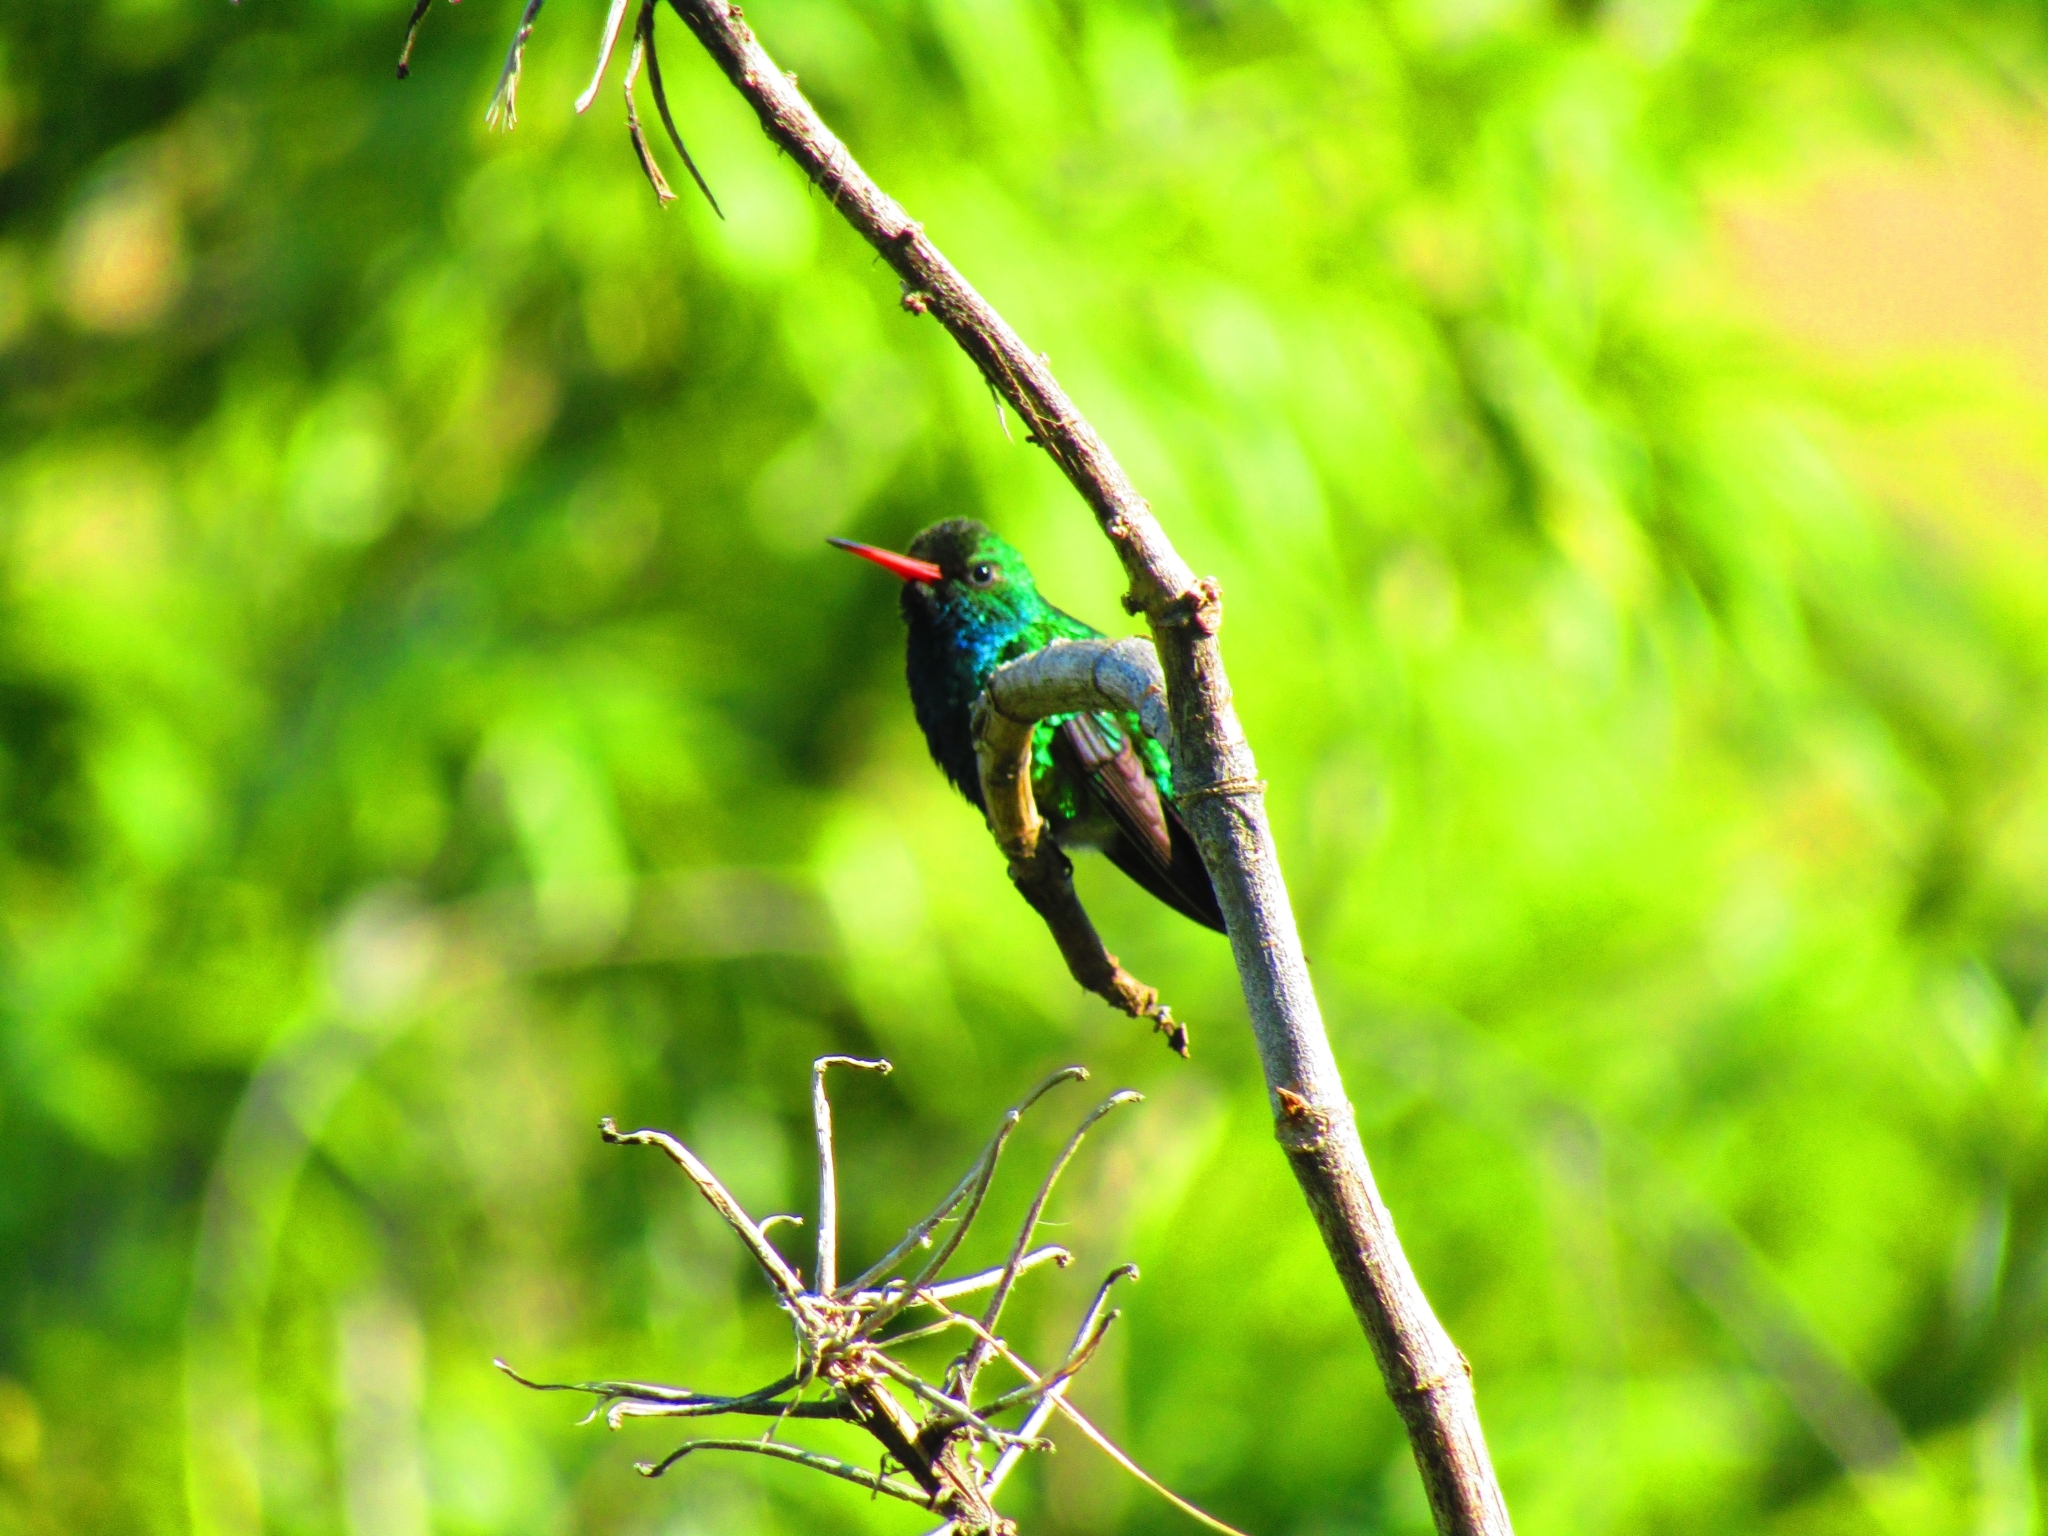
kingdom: Animalia
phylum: Chordata
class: Aves
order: Apodiformes
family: Trochilidae
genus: Chlorostilbon
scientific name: Chlorostilbon lucidus
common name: Glittering-bellied emerald
